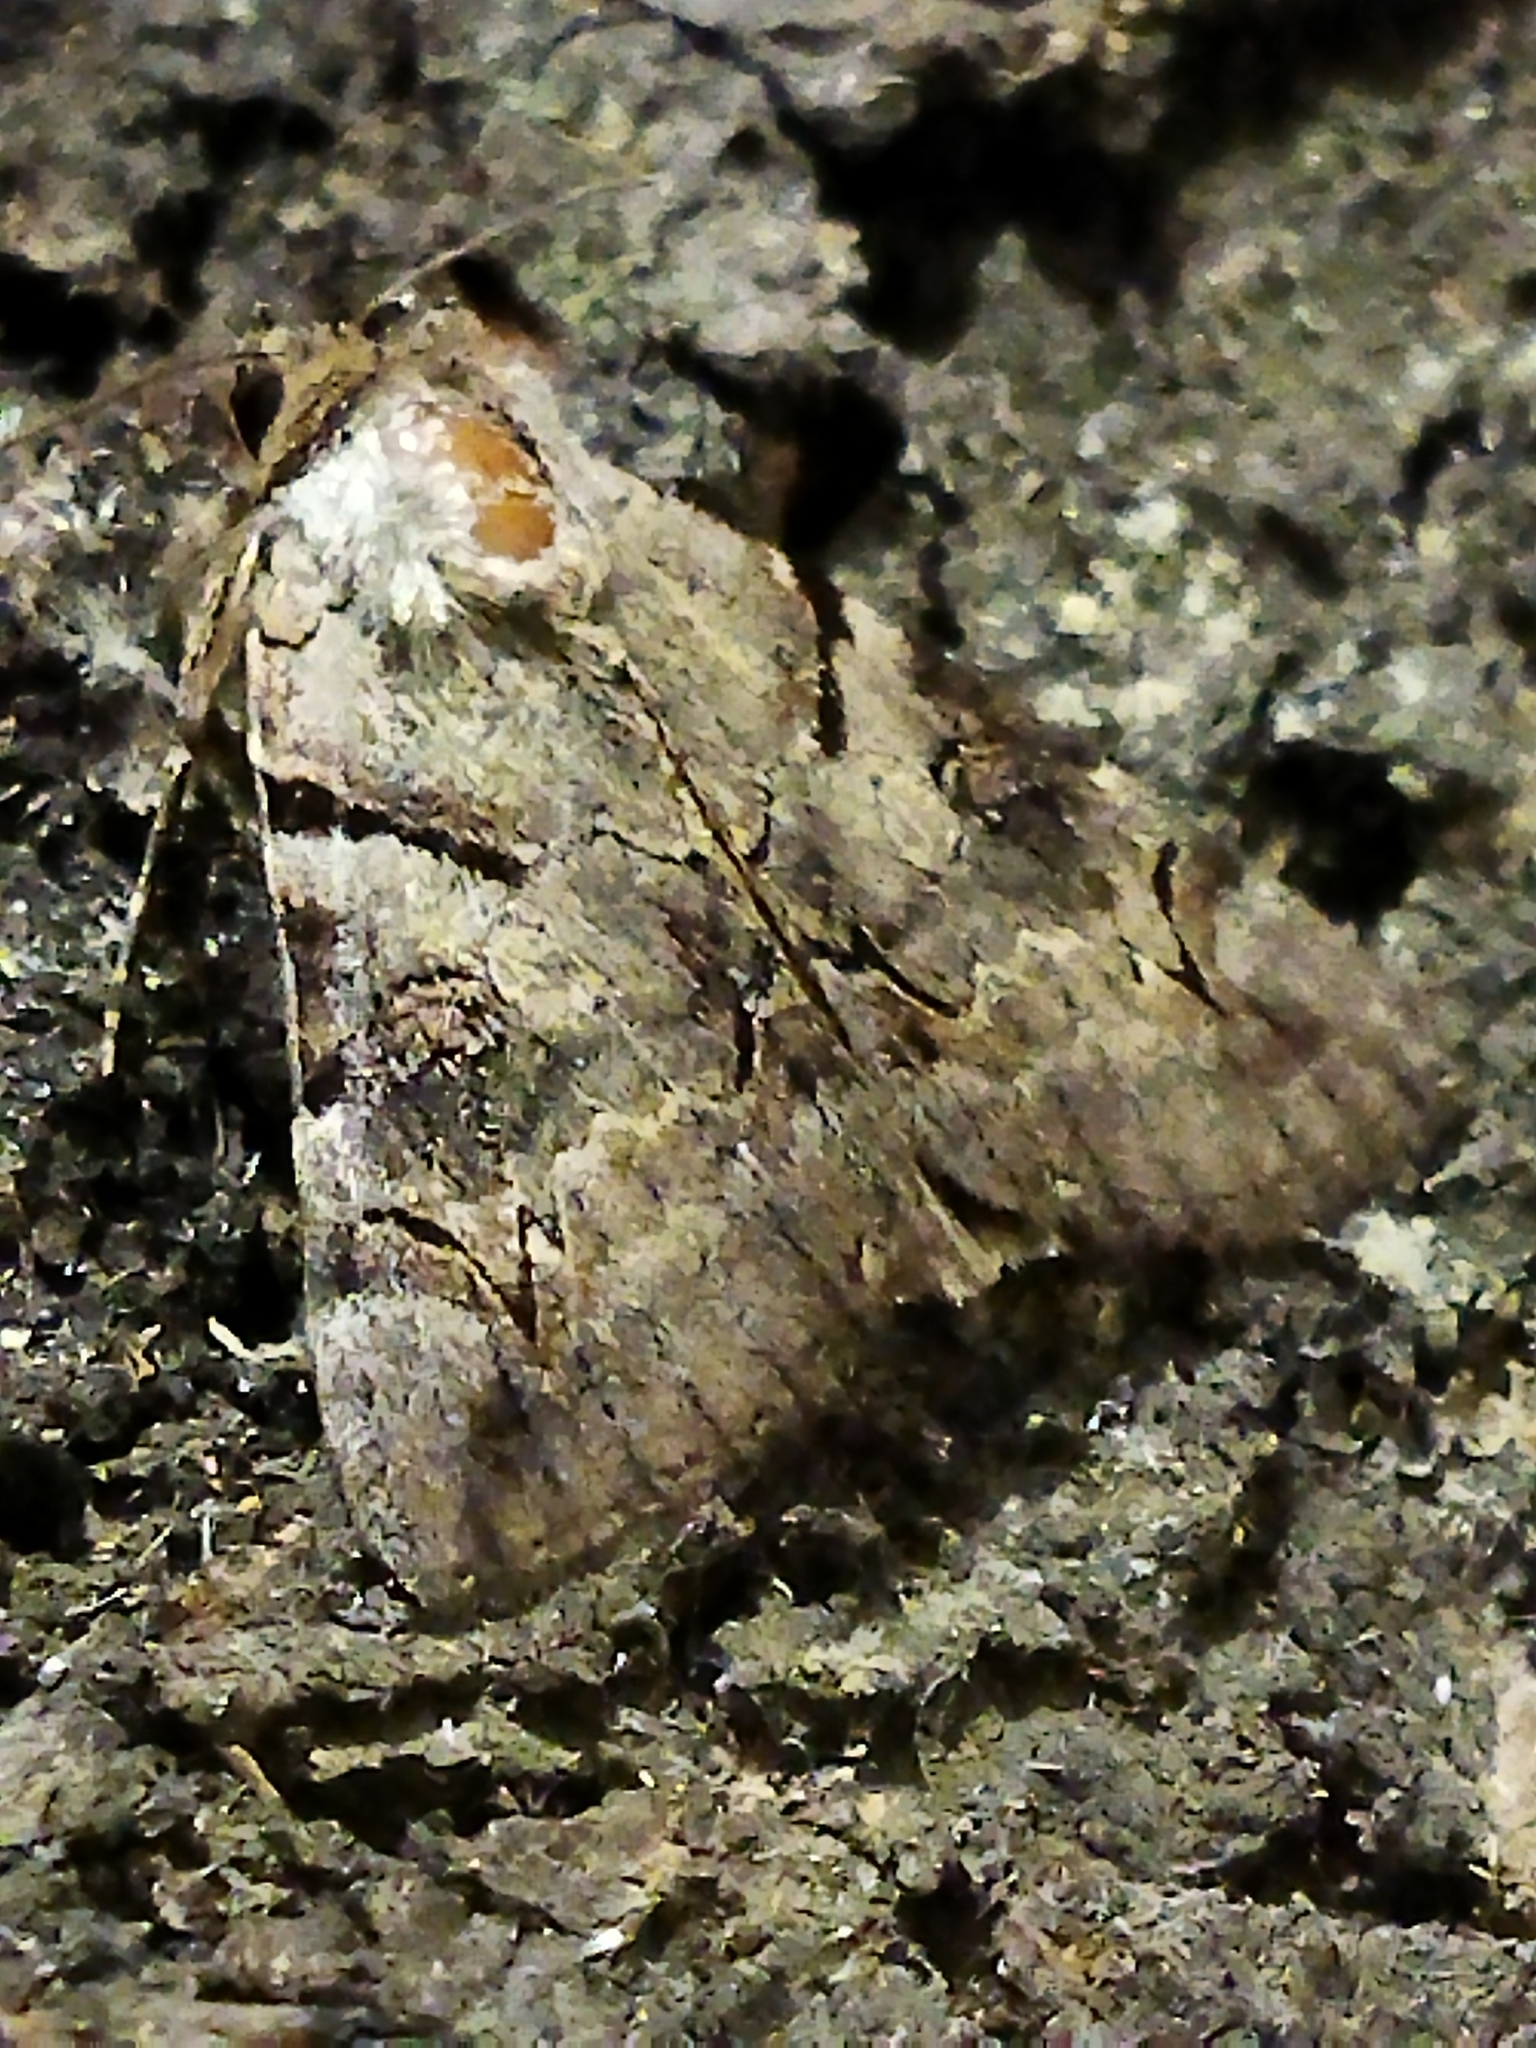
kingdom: Animalia
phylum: Arthropoda
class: Insecta
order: Lepidoptera
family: Erebidae
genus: Catocala
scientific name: Catocala hymenaea
